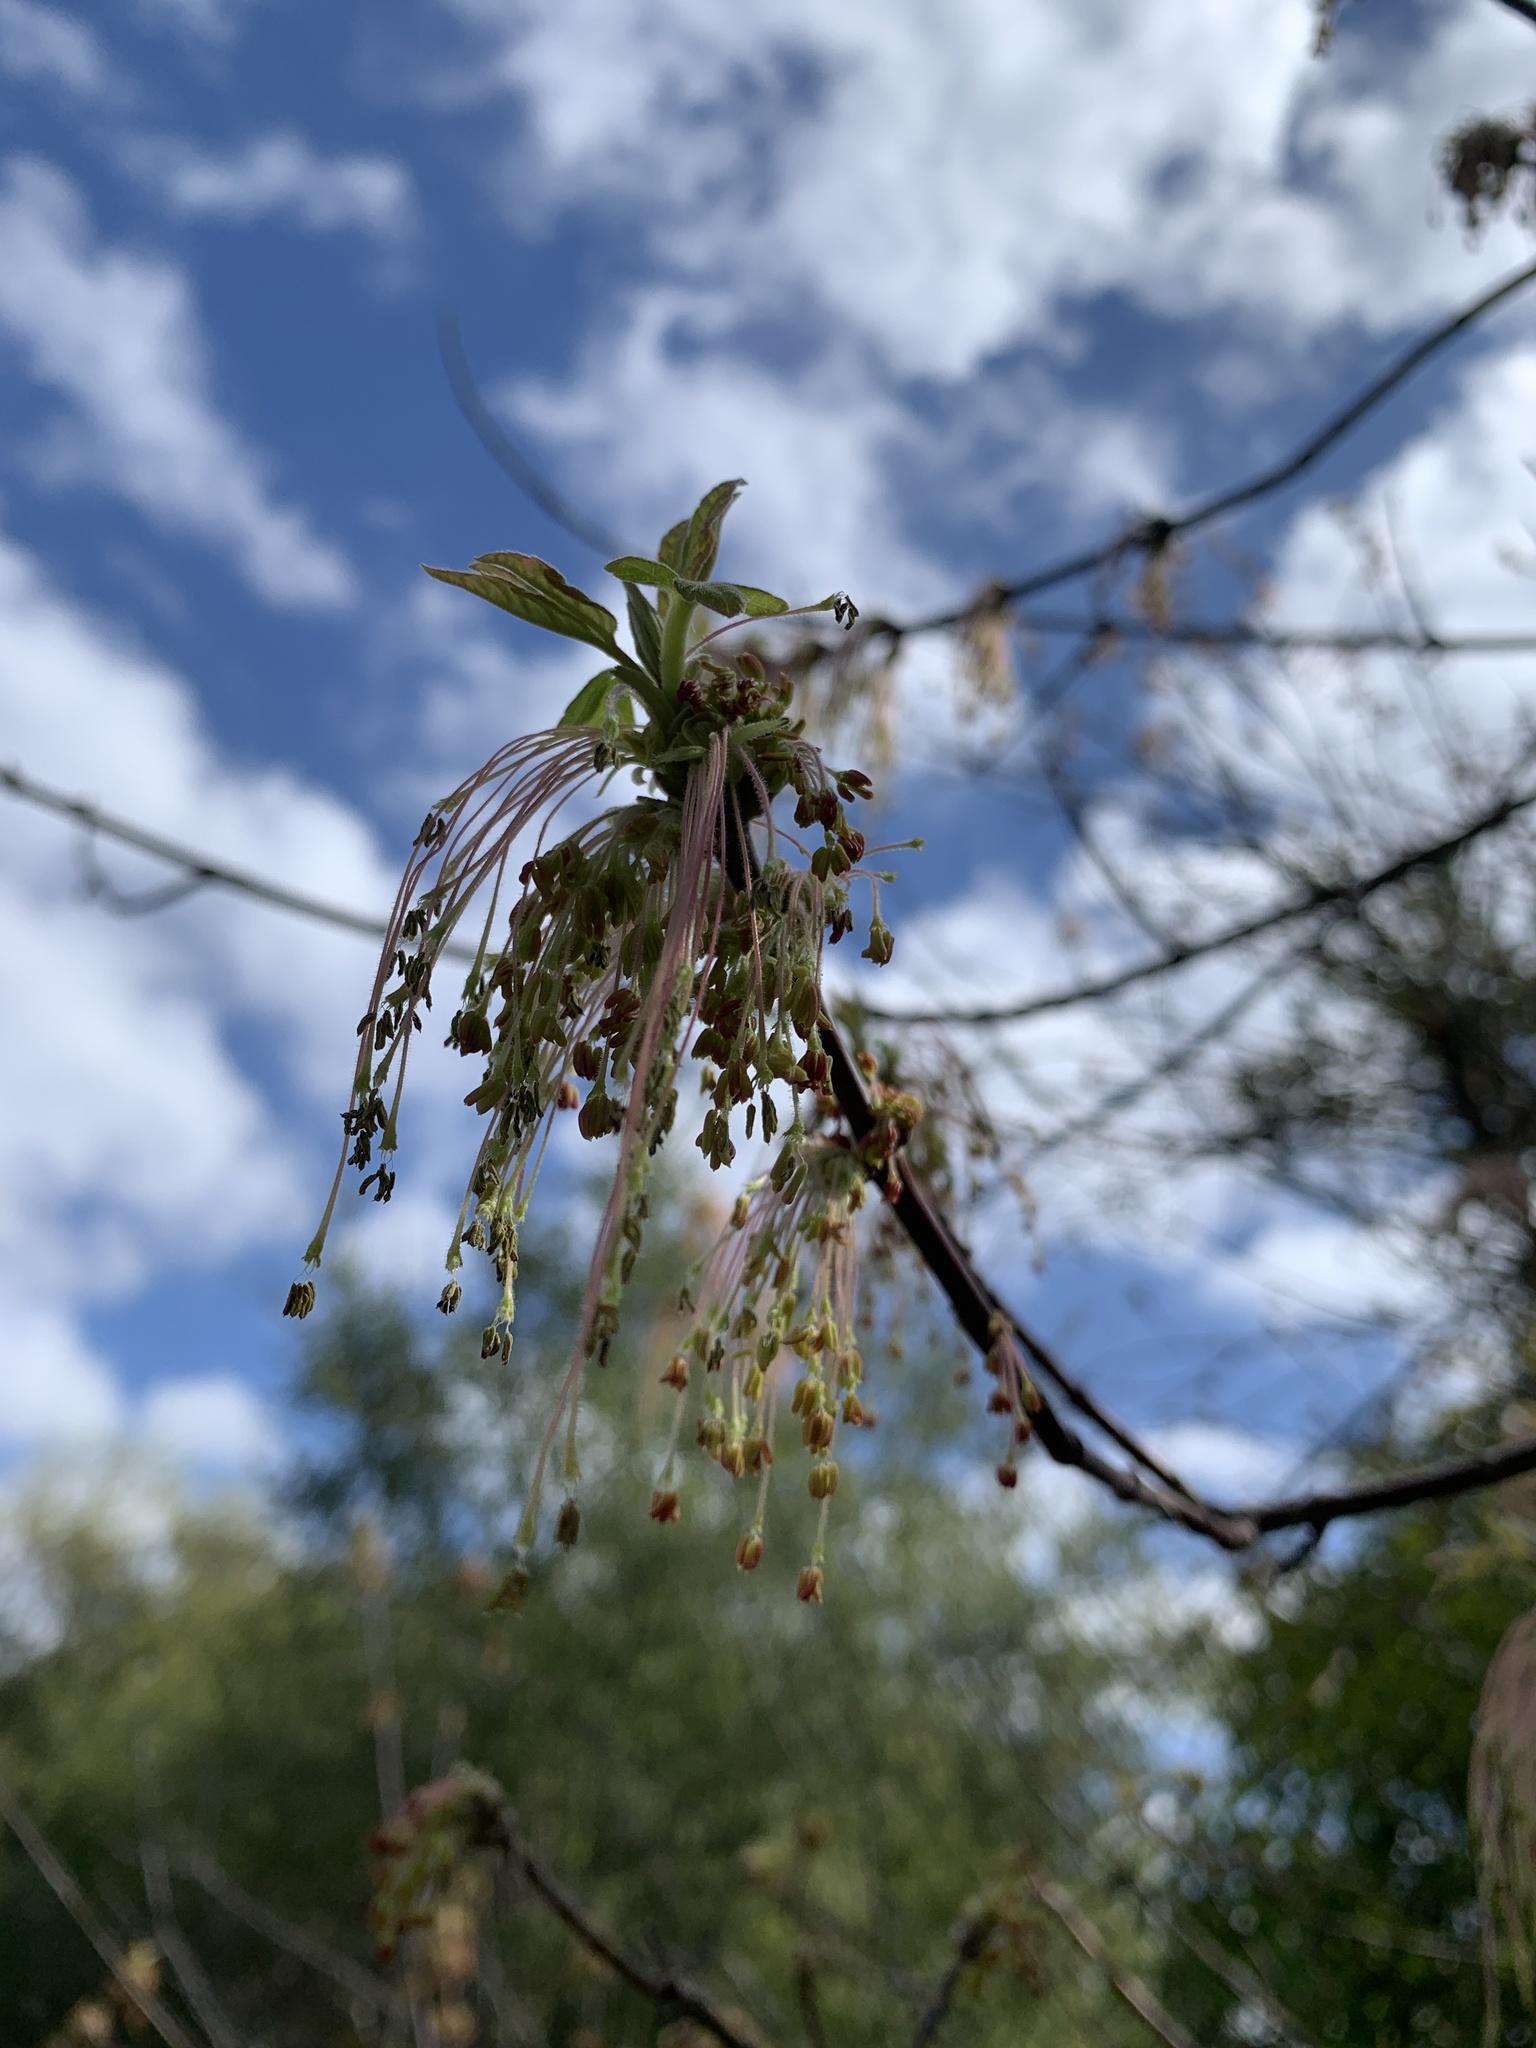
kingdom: Plantae
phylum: Tracheophyta
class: Magnoliopsida
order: Sapindales
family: Sapindaceae
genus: Acer
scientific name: Acer negundo
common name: Ashleaf maple
